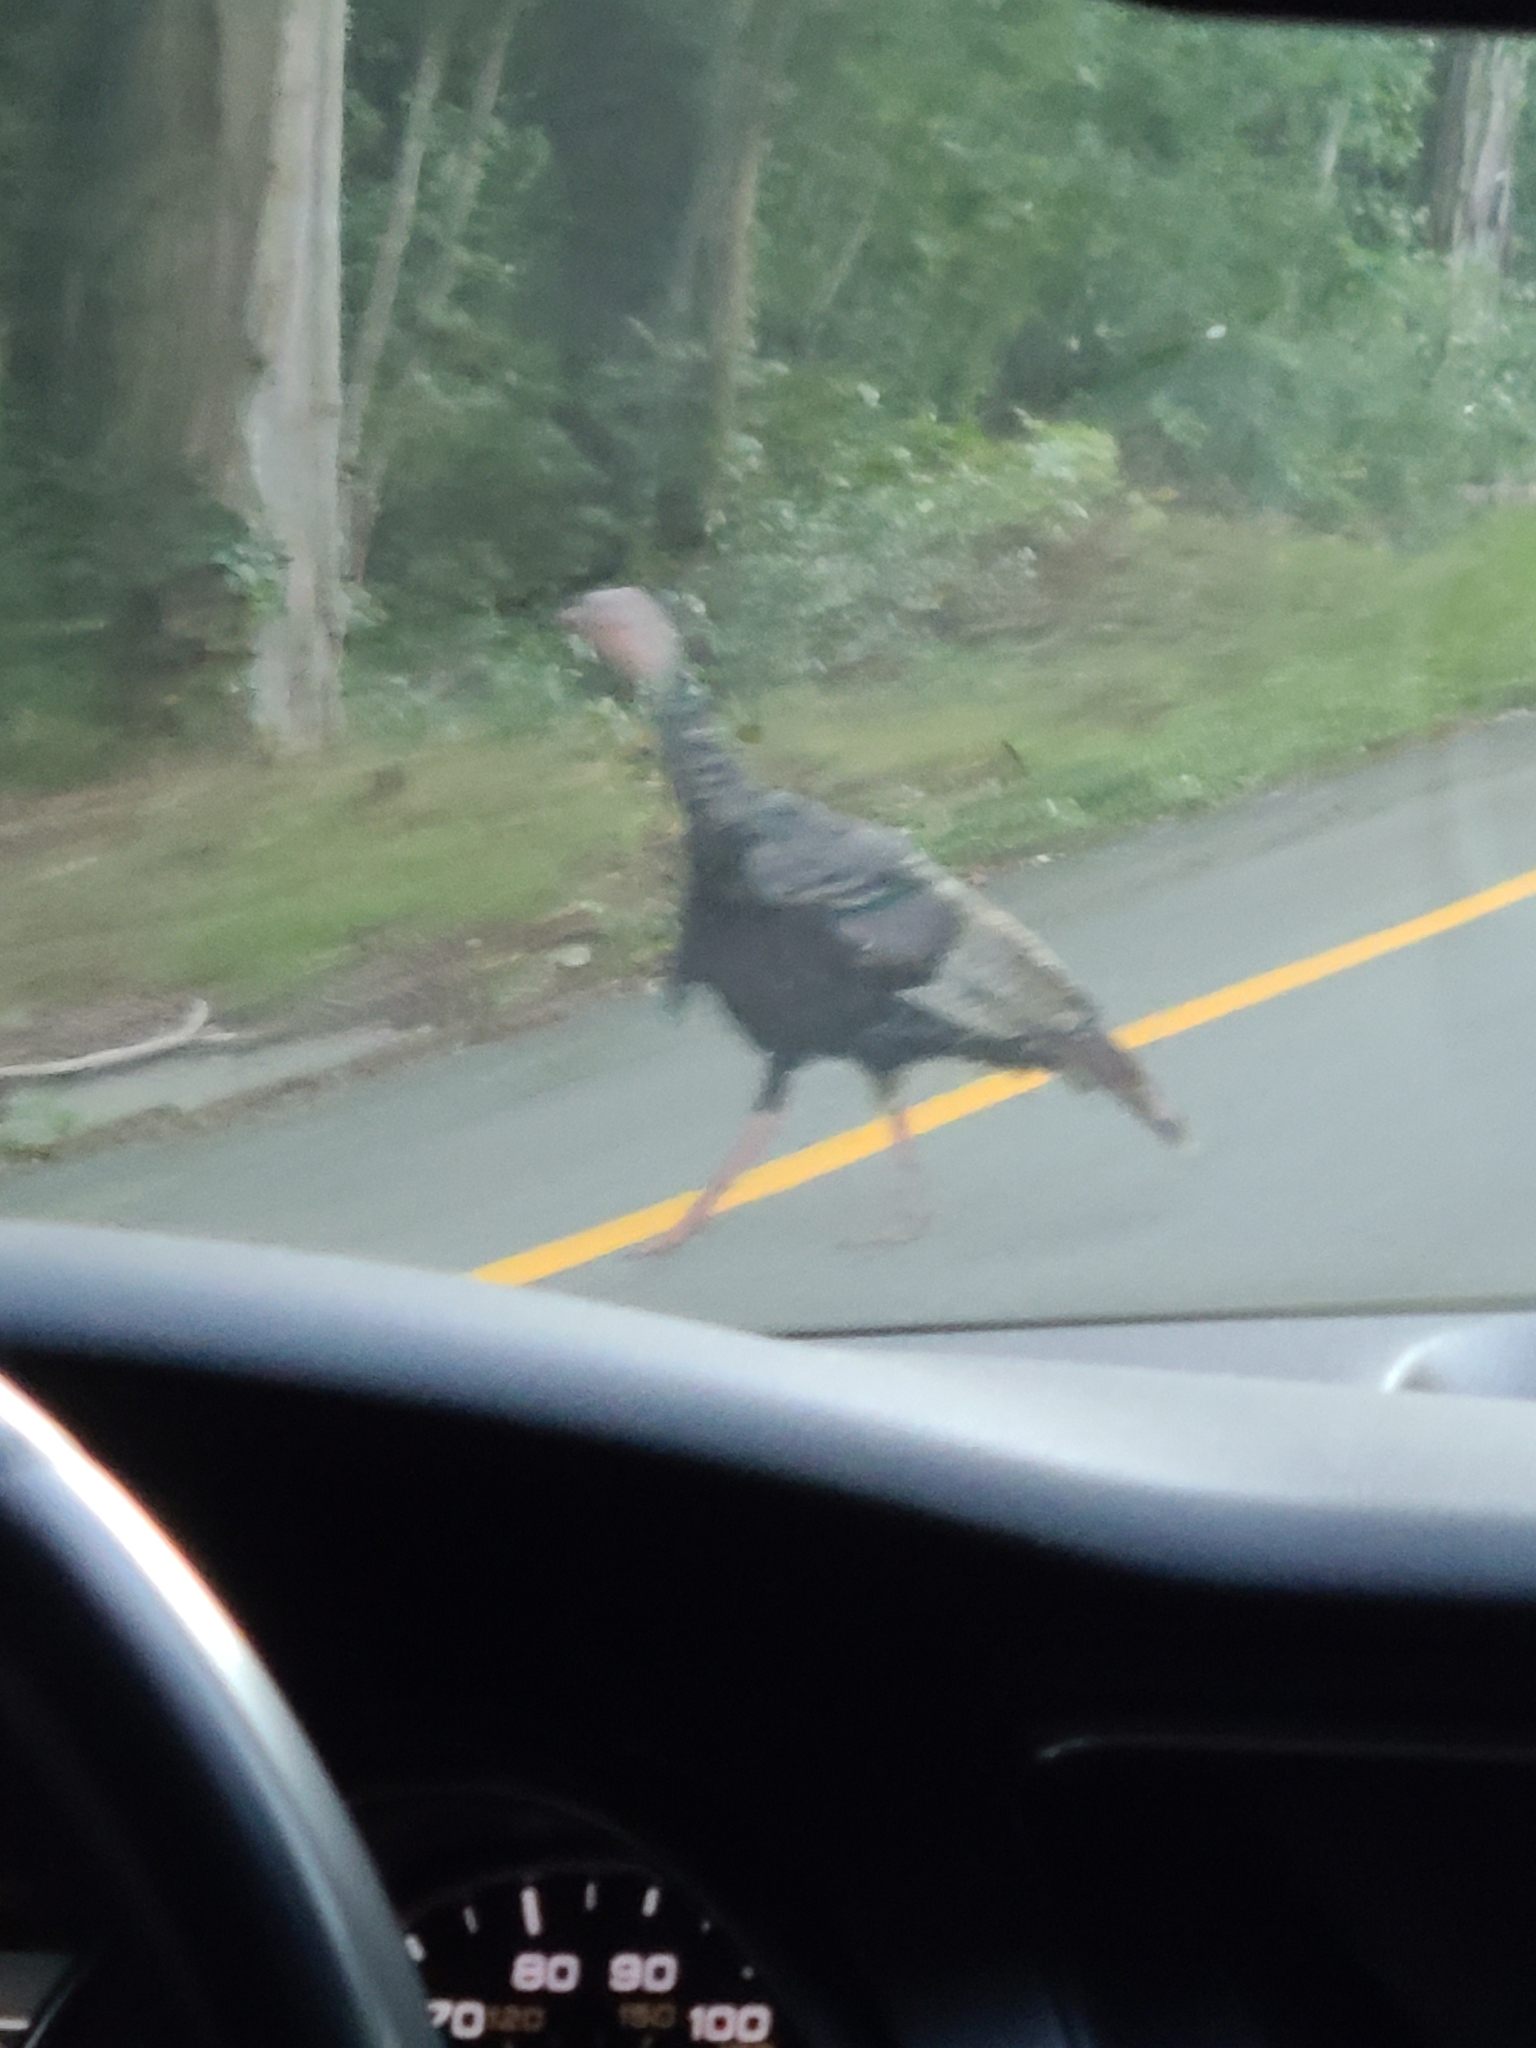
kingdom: Animalia
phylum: Chordata
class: Aves
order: Galliformes
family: Phasianidae
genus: Meleagris
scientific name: Meleagris gallopavo
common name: Wild turkey
